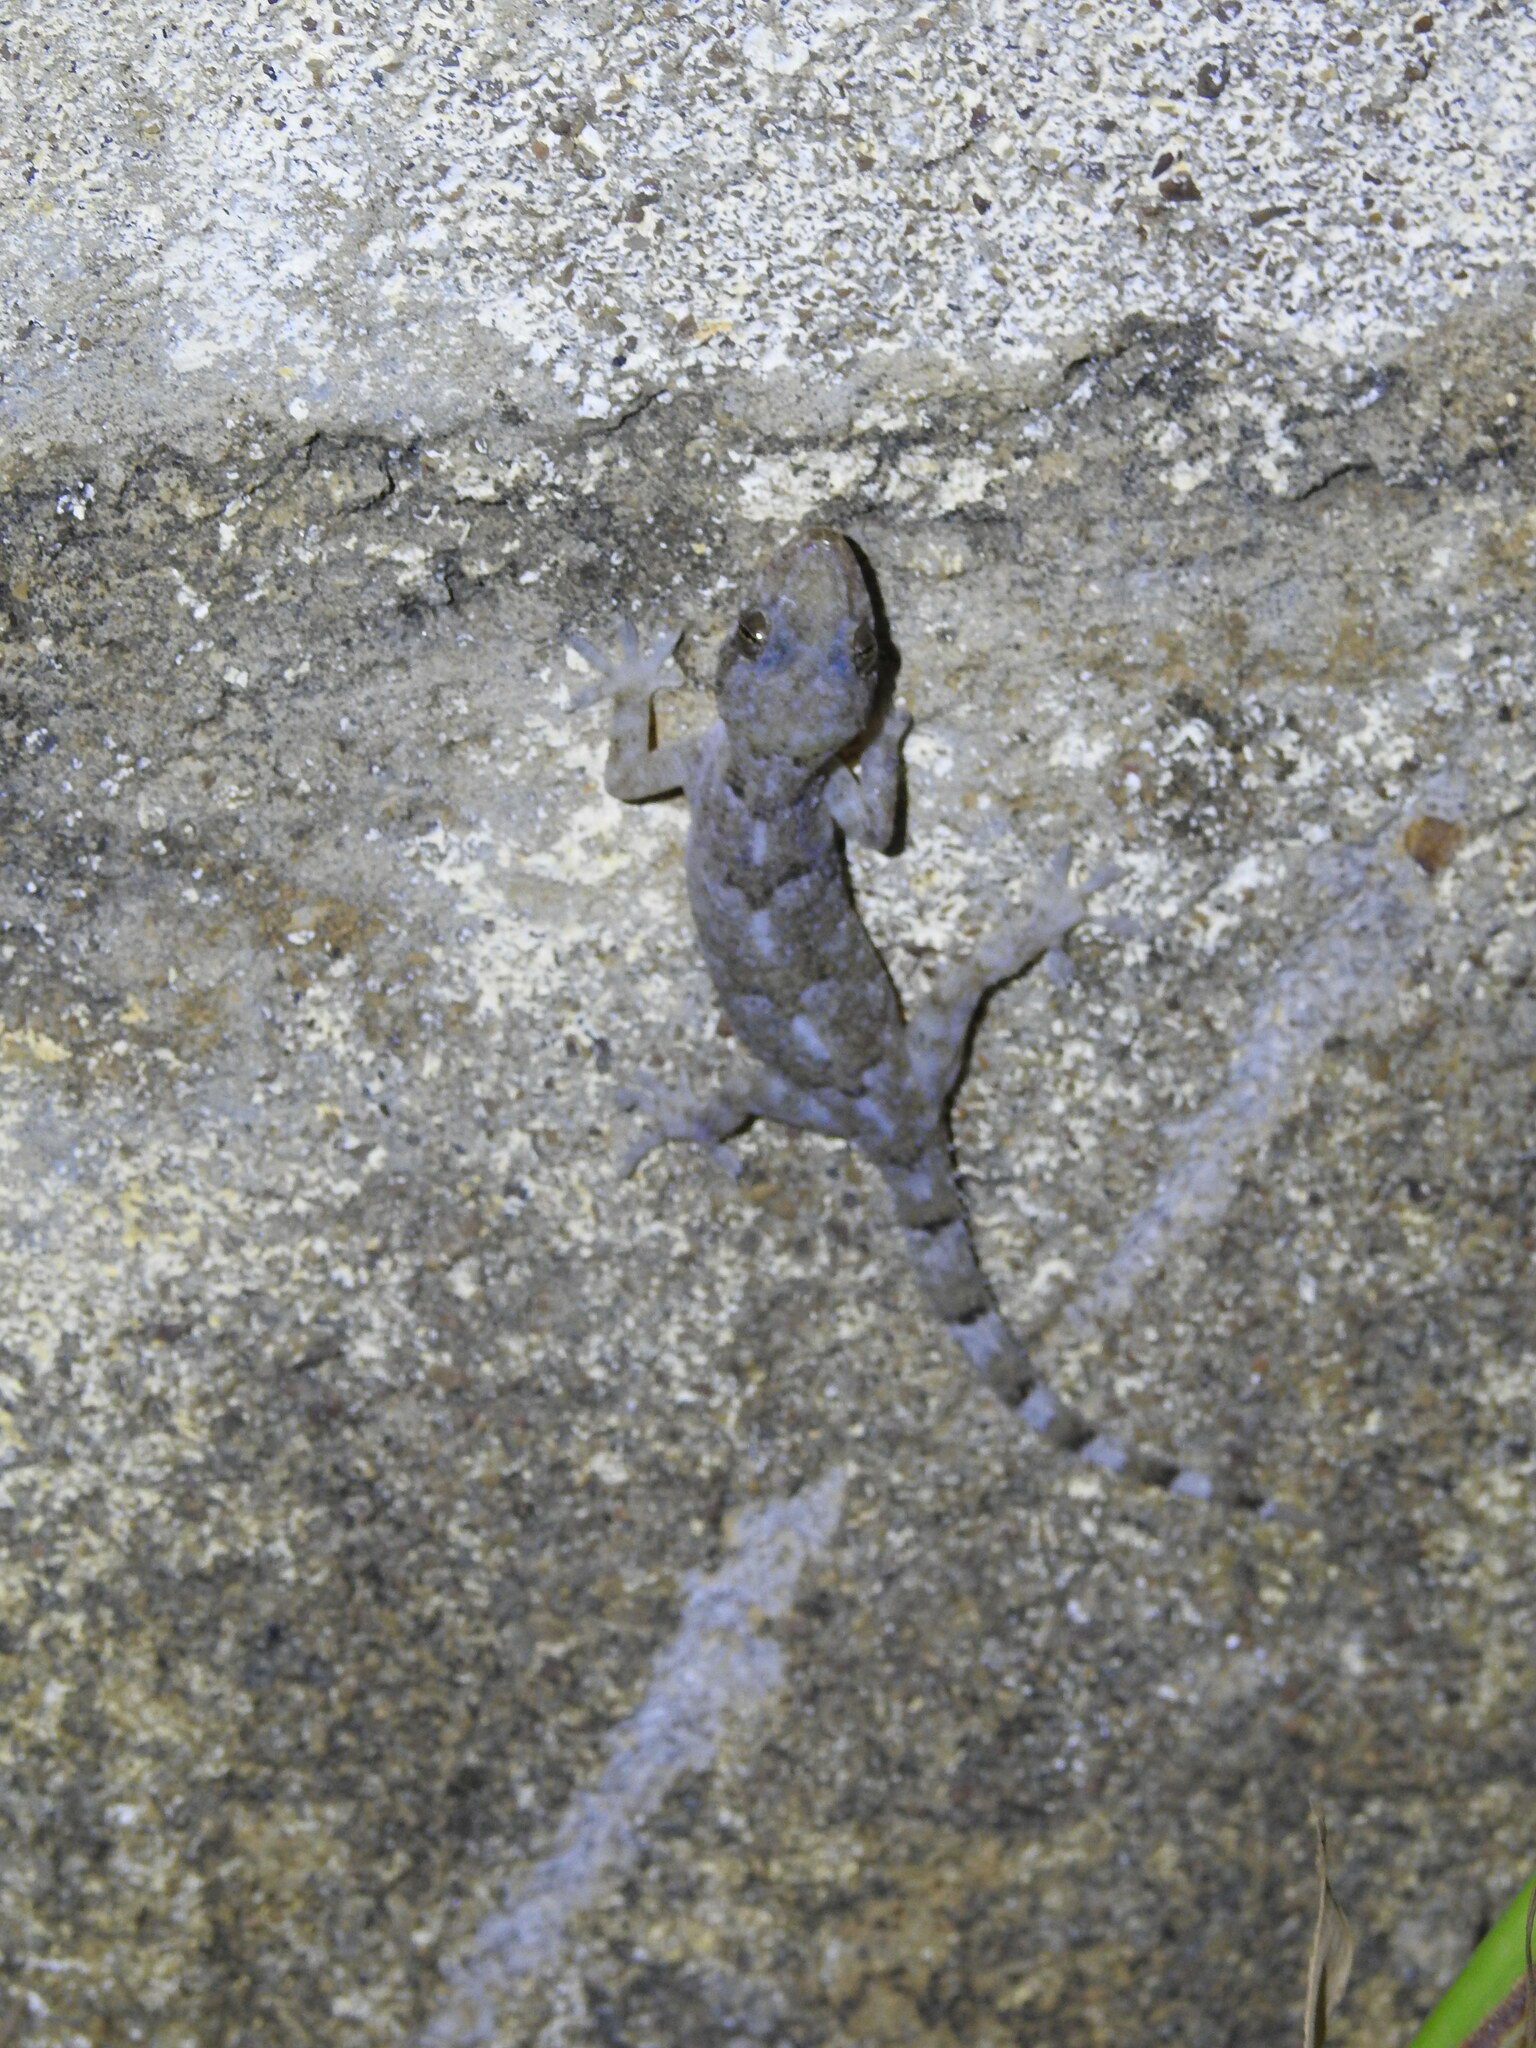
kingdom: Animalia
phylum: Chordata
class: Squamata
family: Gekkonidae
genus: Hemidactylus
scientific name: Hemidactylus mabouia
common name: House gecko
